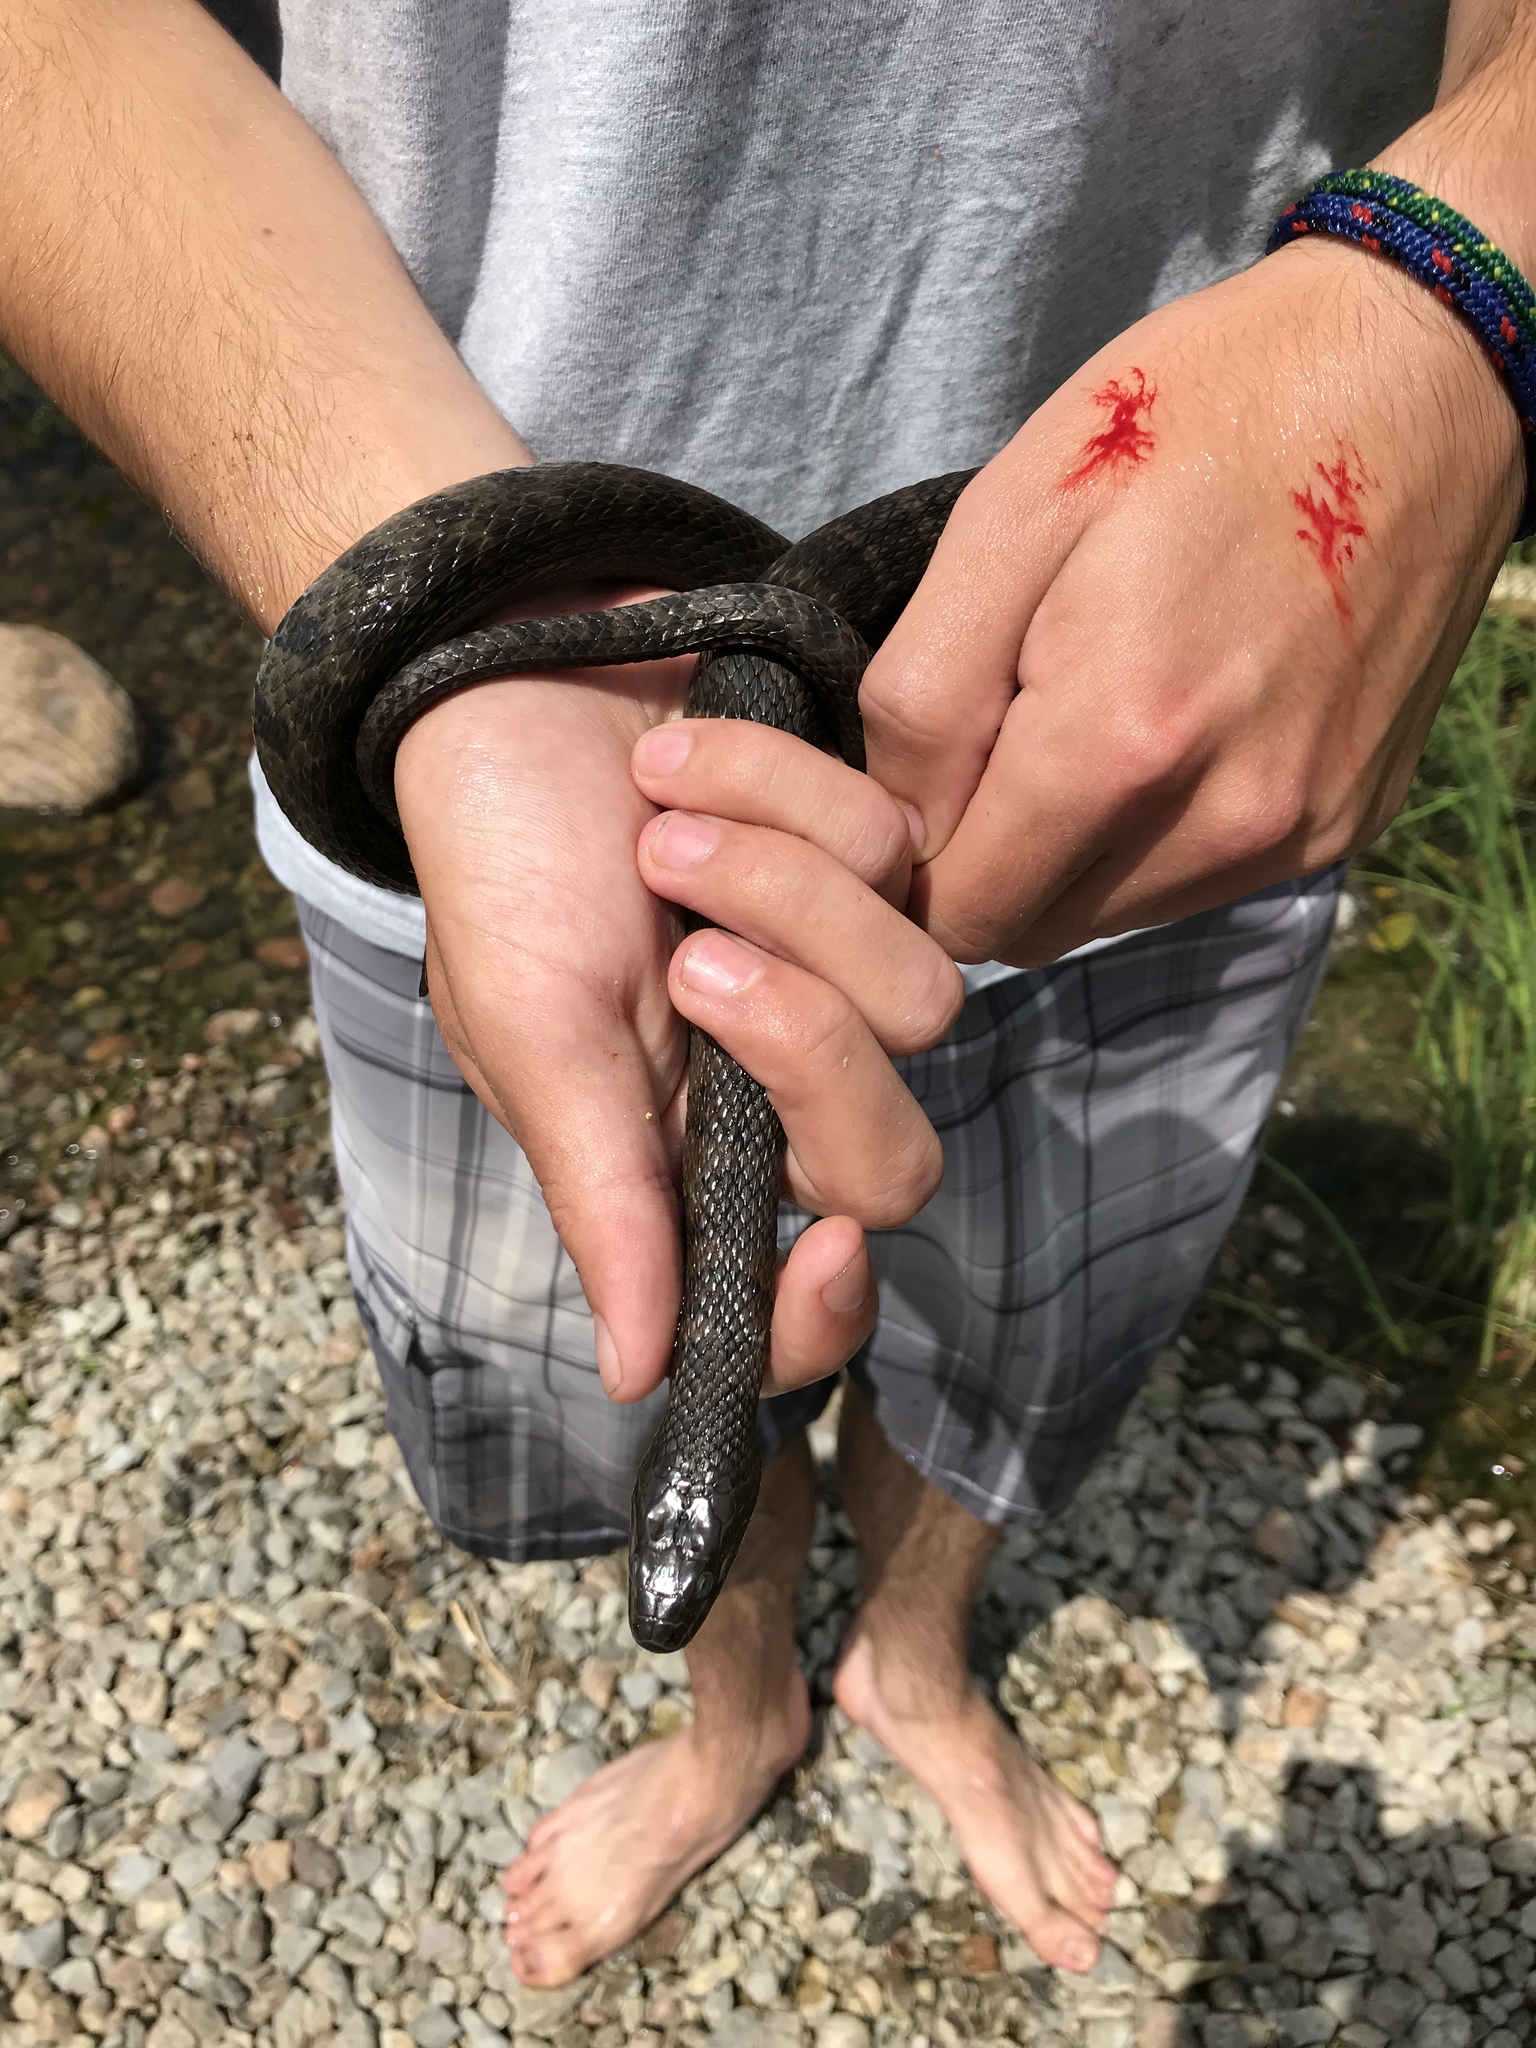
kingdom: Animalia
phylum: Chordata
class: Squamata
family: Colubridae
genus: Nerodia
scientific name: Nerodia sipedon
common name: Northern water snake
